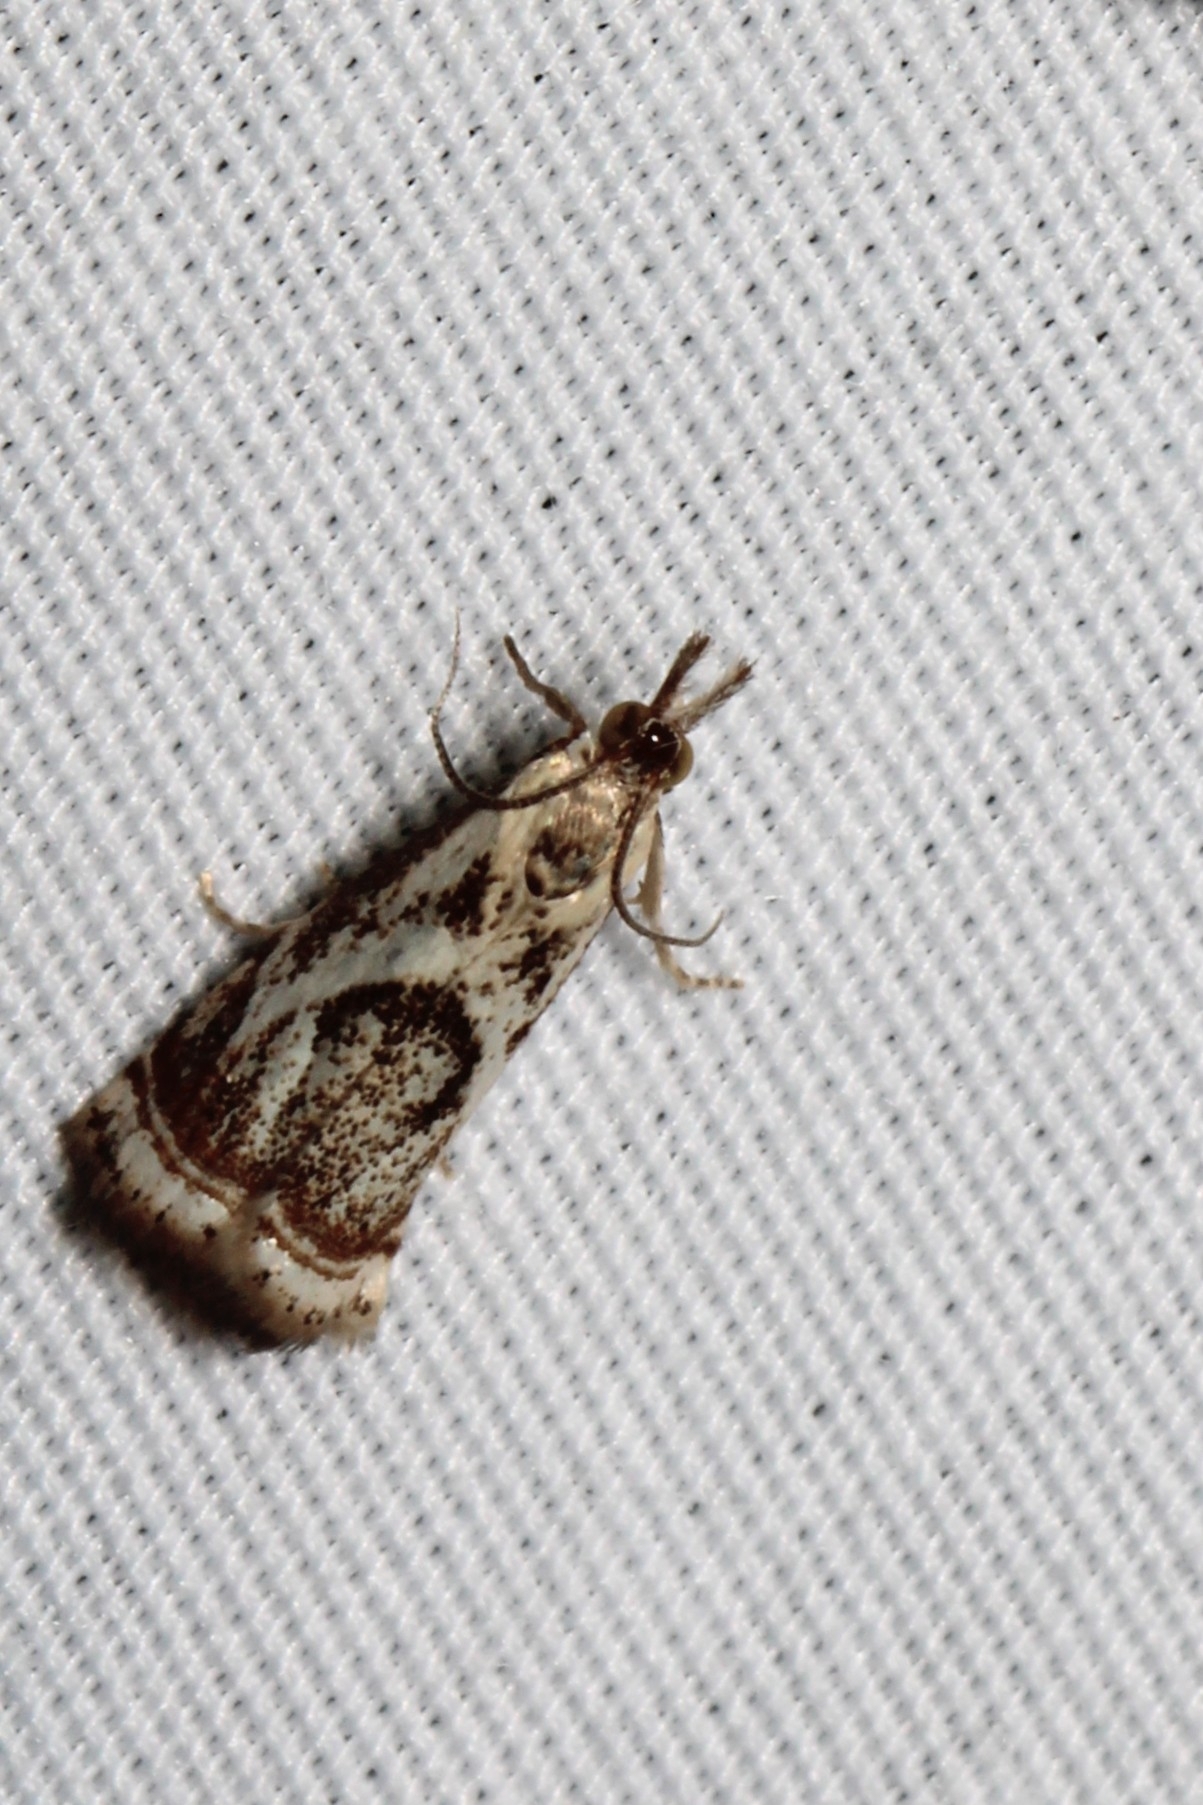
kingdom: Animalia
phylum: Arthropoda
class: Insecta
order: Lepidoptera
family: Crambidae
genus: Microcrambus
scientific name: Microcrambus elegans
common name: Elegant grass-veneer
